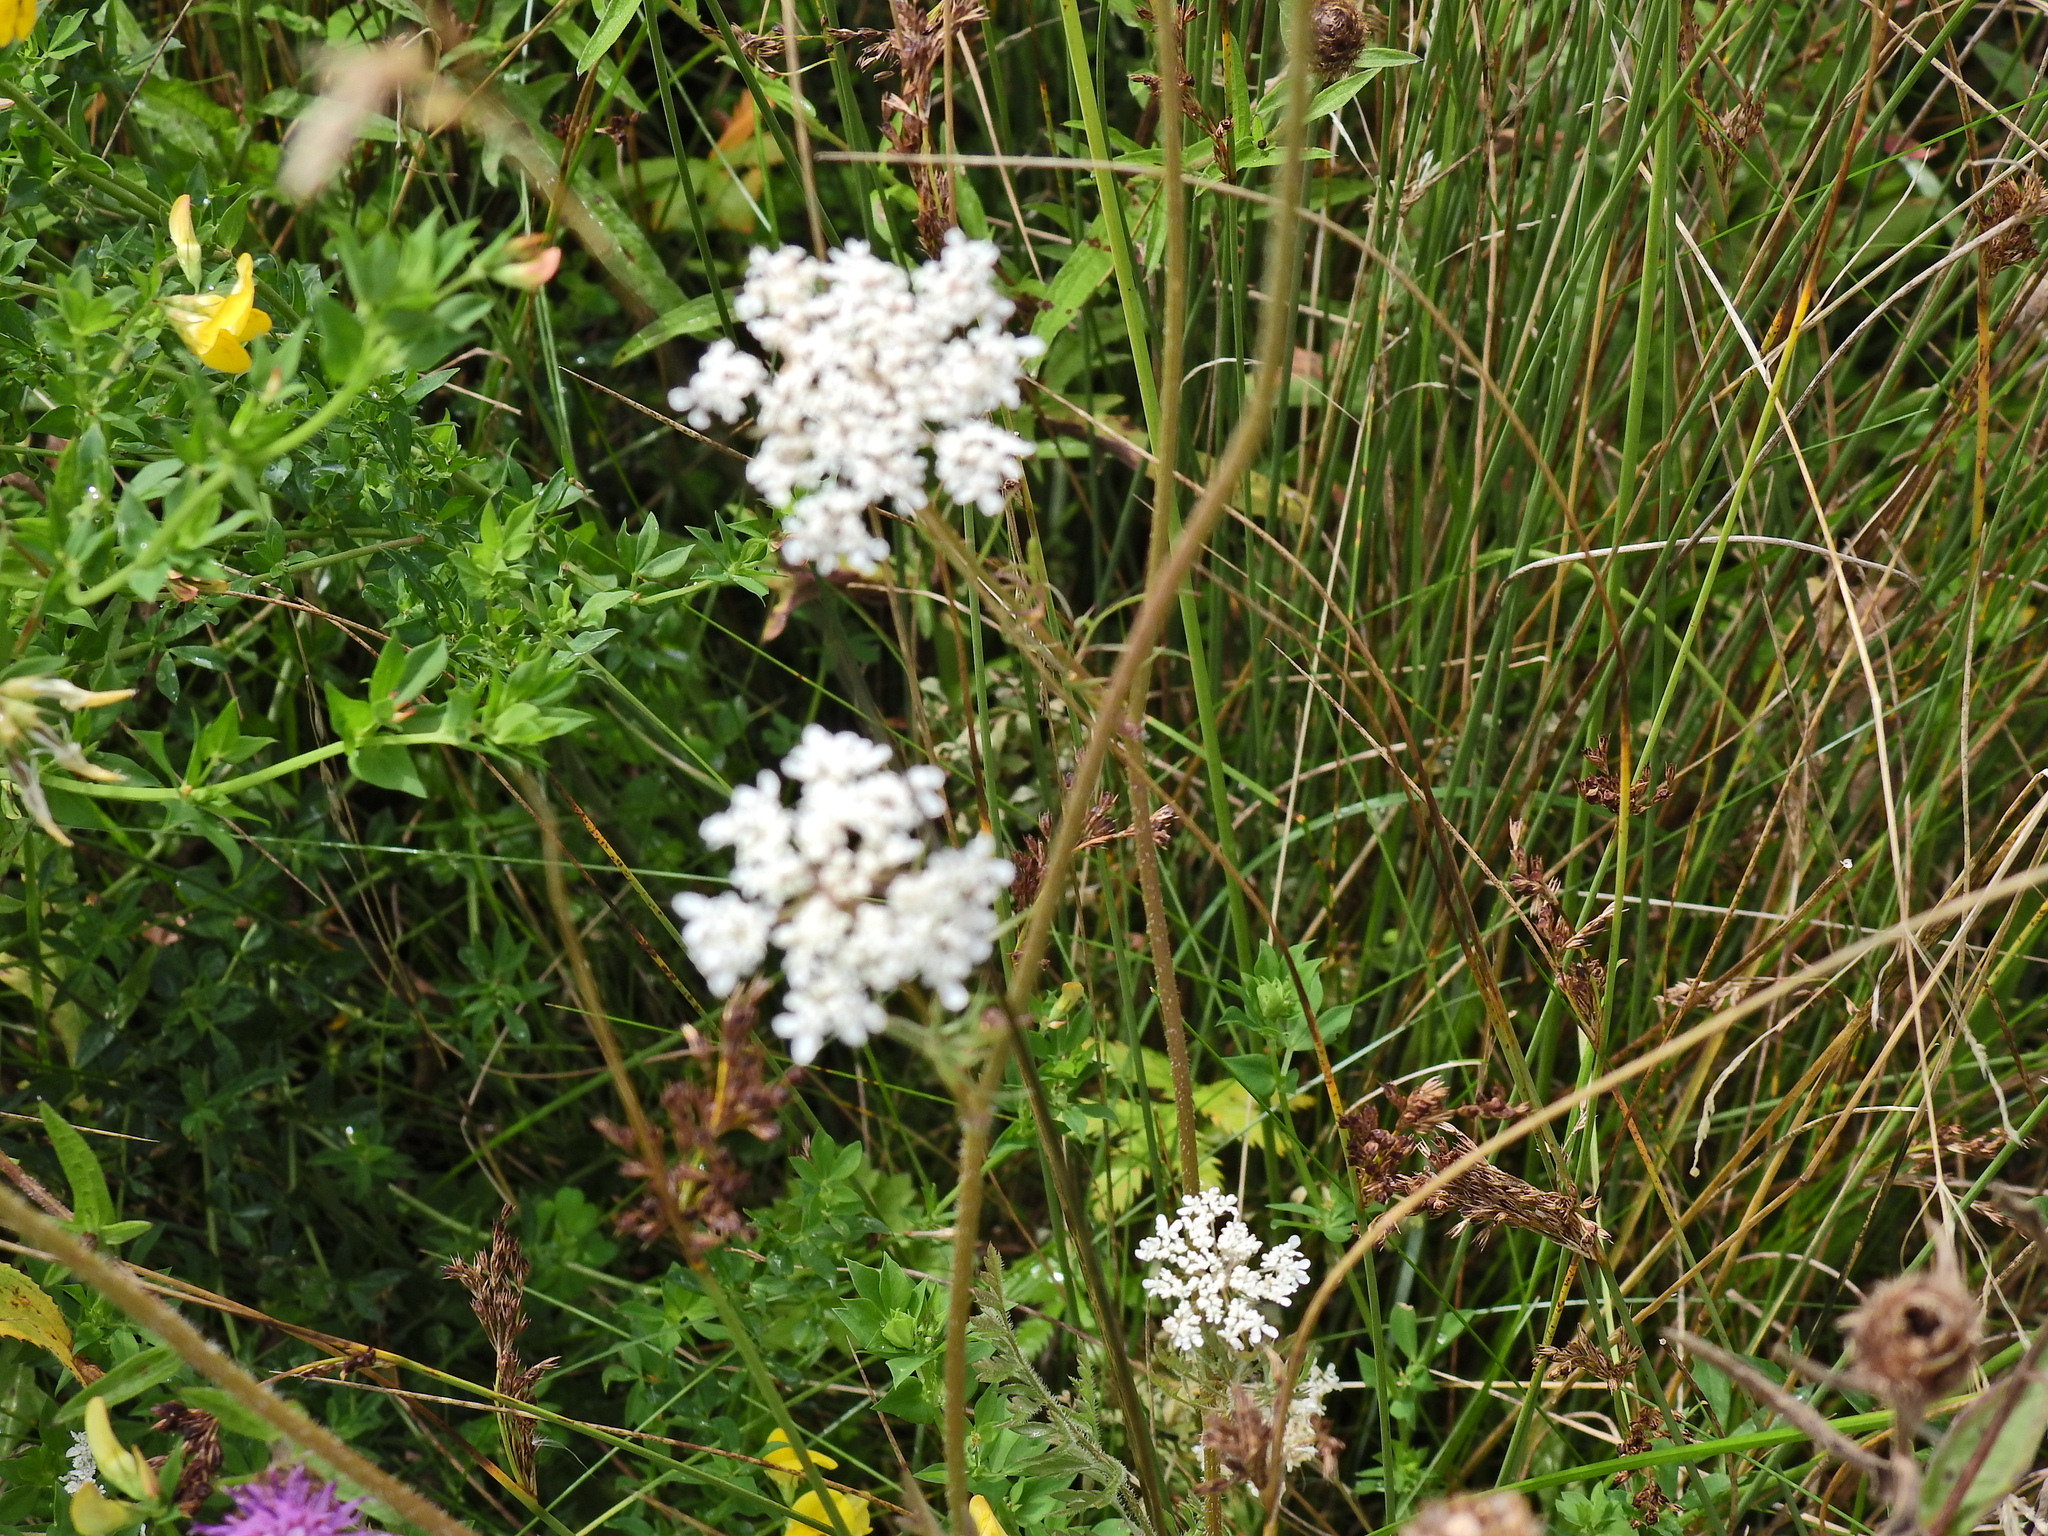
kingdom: Plantae
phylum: Tracheophyta
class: Magnoliopsida
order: Apiales
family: Apiaceae
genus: Daucus
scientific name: Daucus carota
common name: Wild carrot
